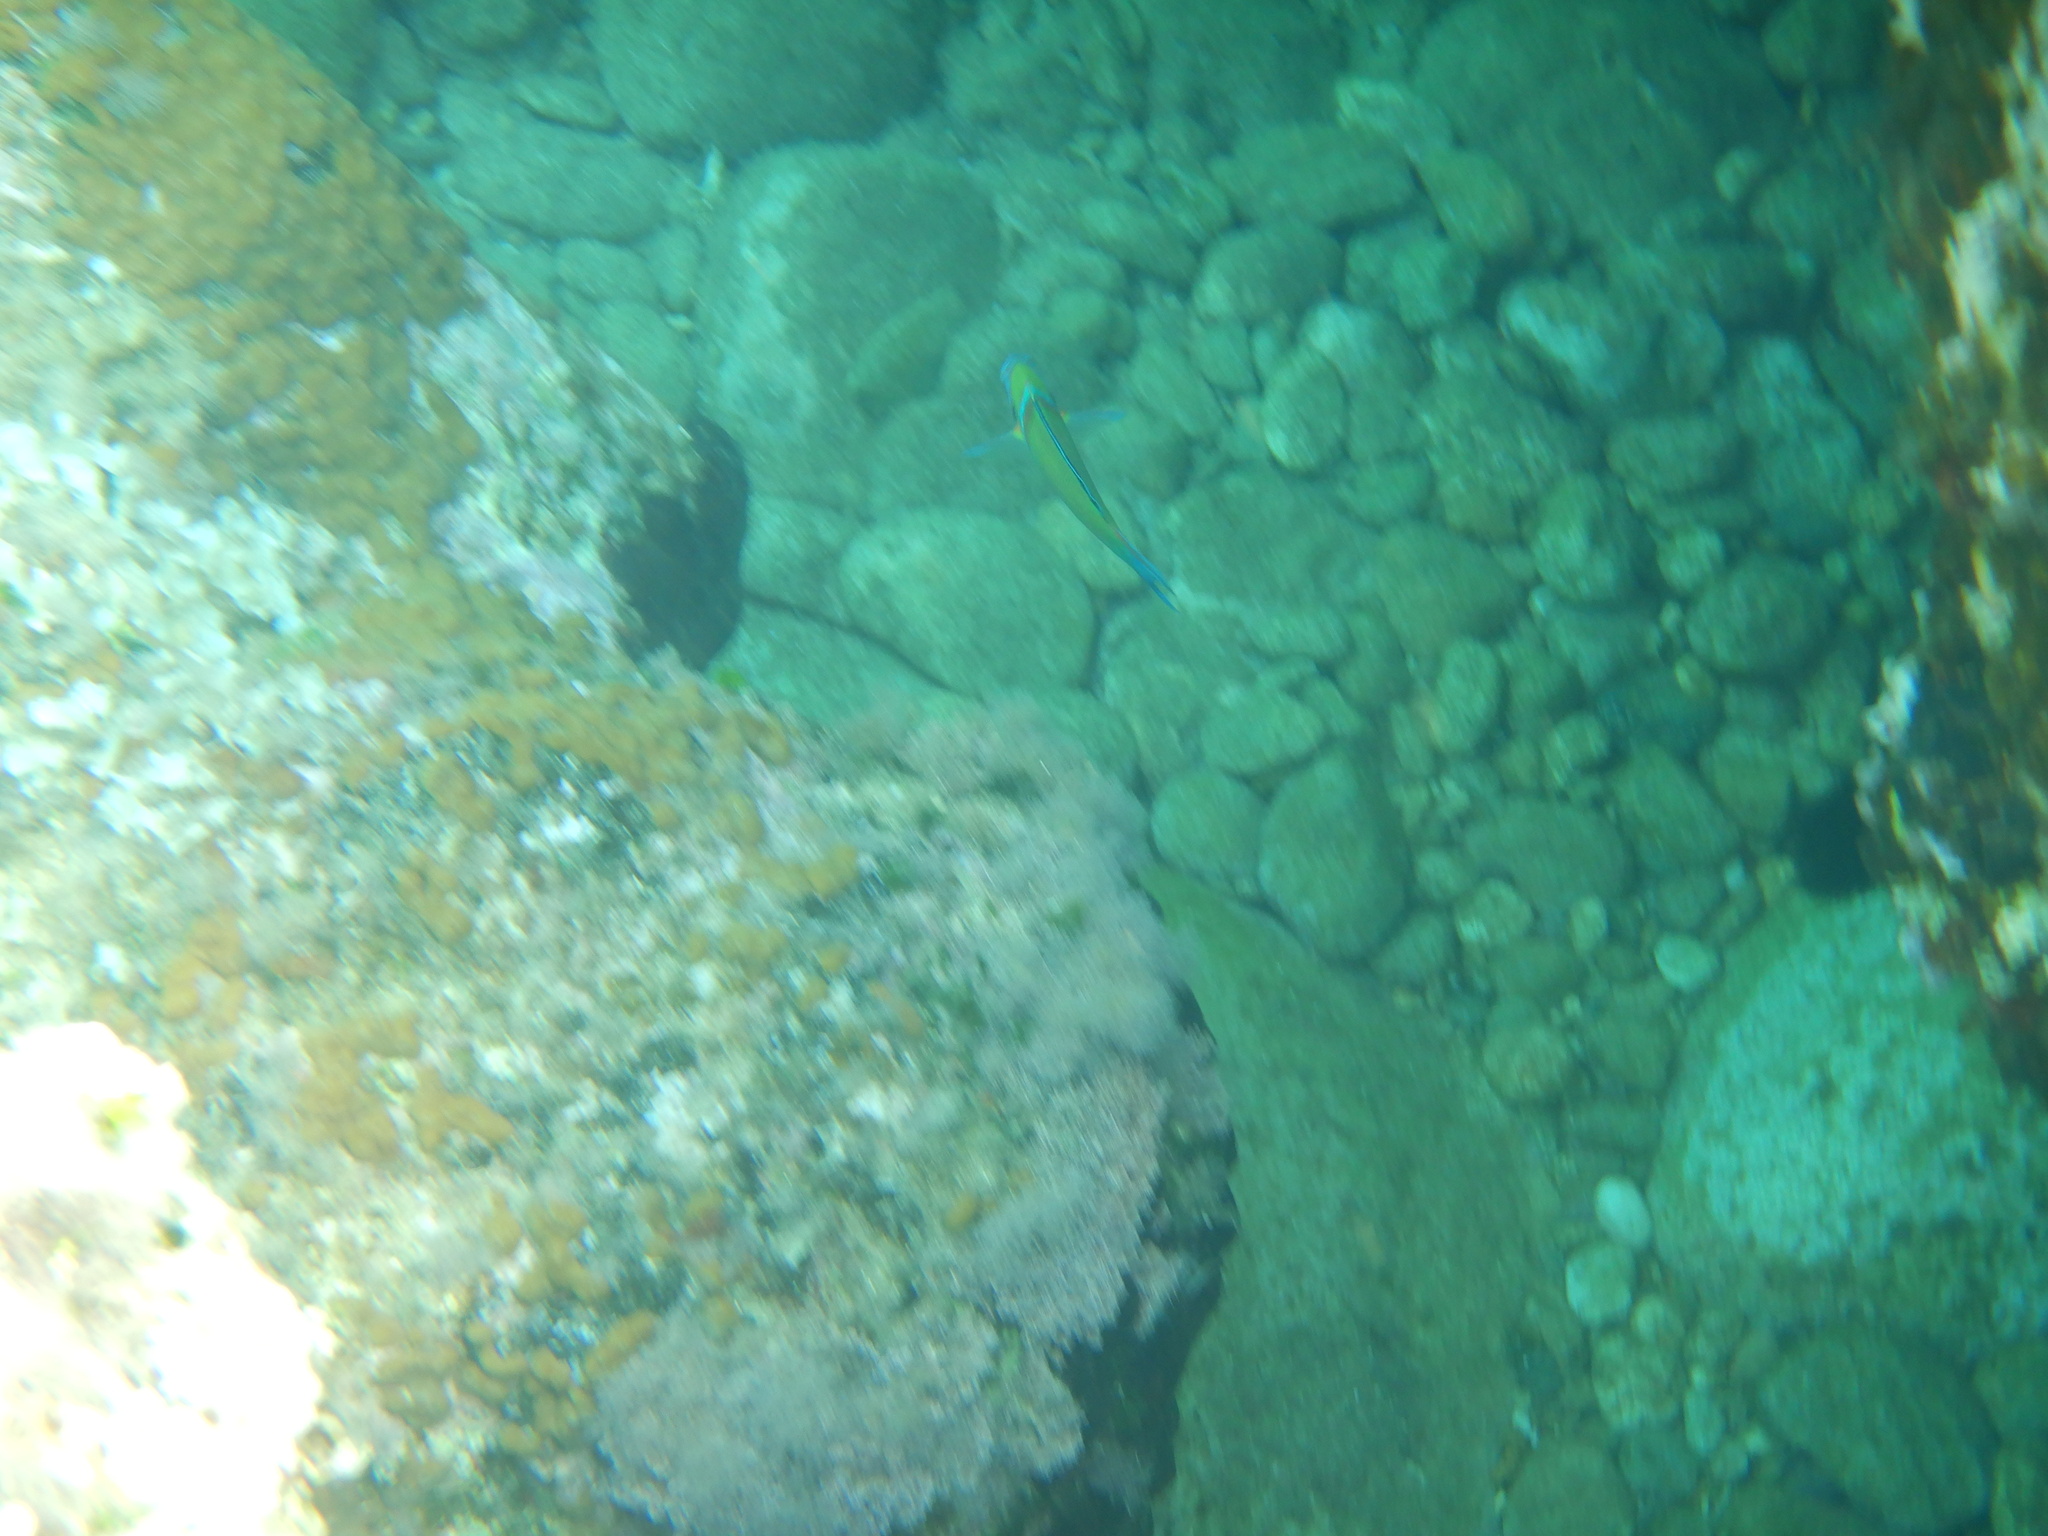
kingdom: Animalia
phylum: Chordata
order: Perciformes
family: Labridae
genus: Thalassoma
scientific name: Thalassoma pavo
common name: Ornate wrasse
